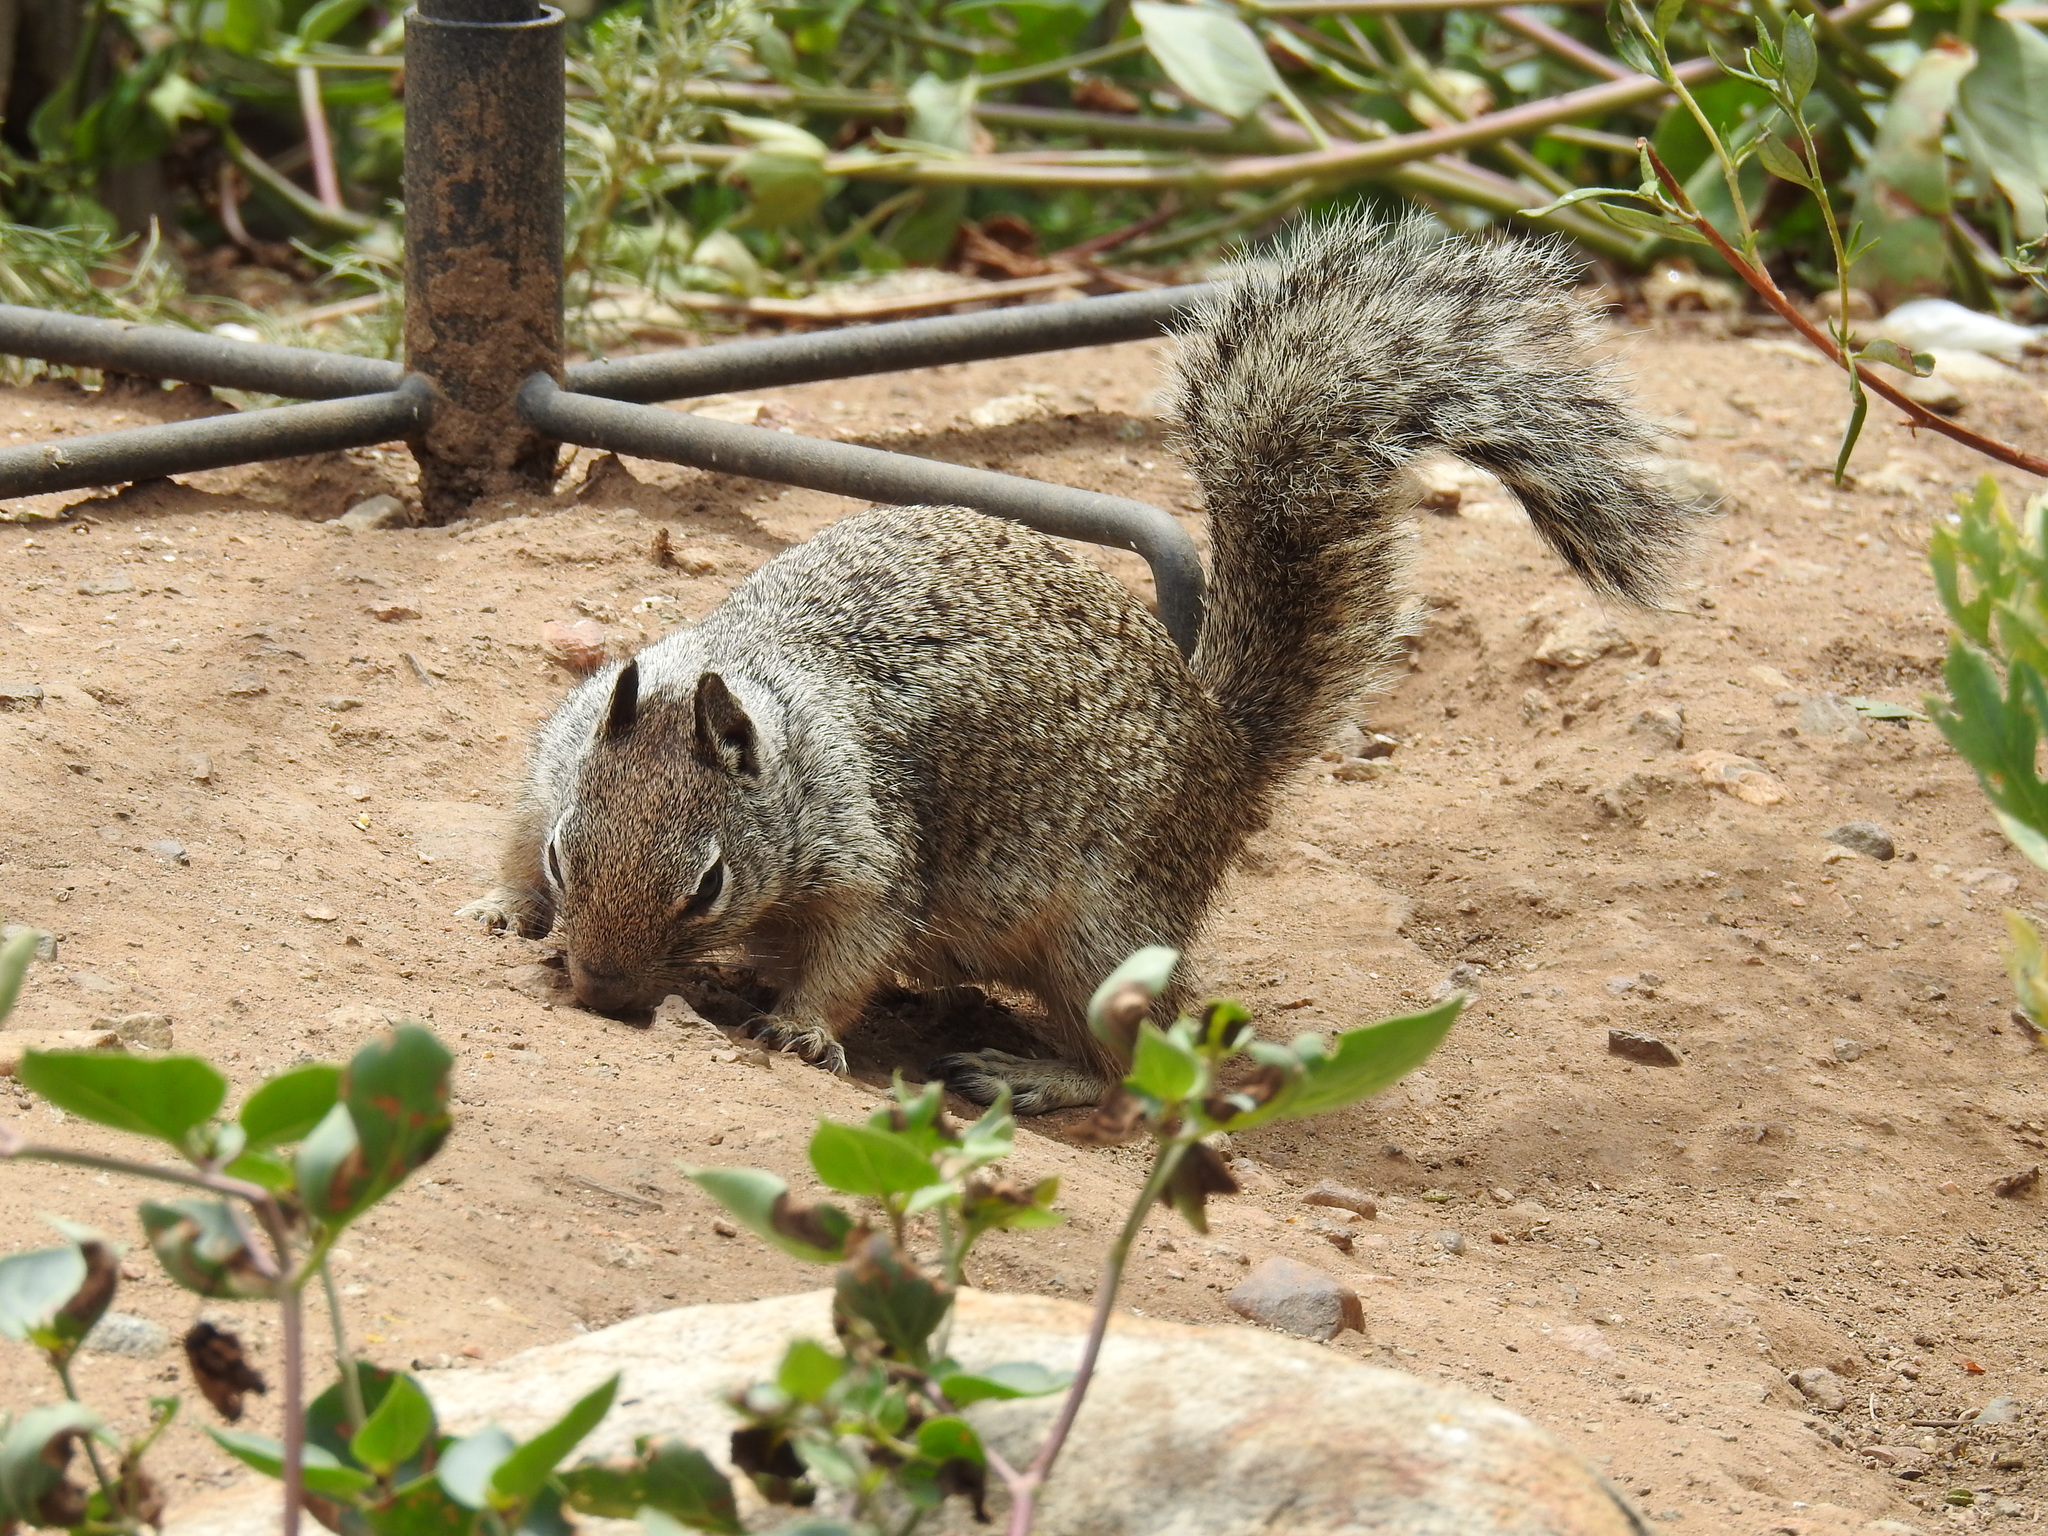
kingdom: Animalia
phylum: Chordata
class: Mammalia
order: Rodentia
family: Sciuridae
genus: Otospermophilus
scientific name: Otospermophilus beecheyi
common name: California ground squirrel
